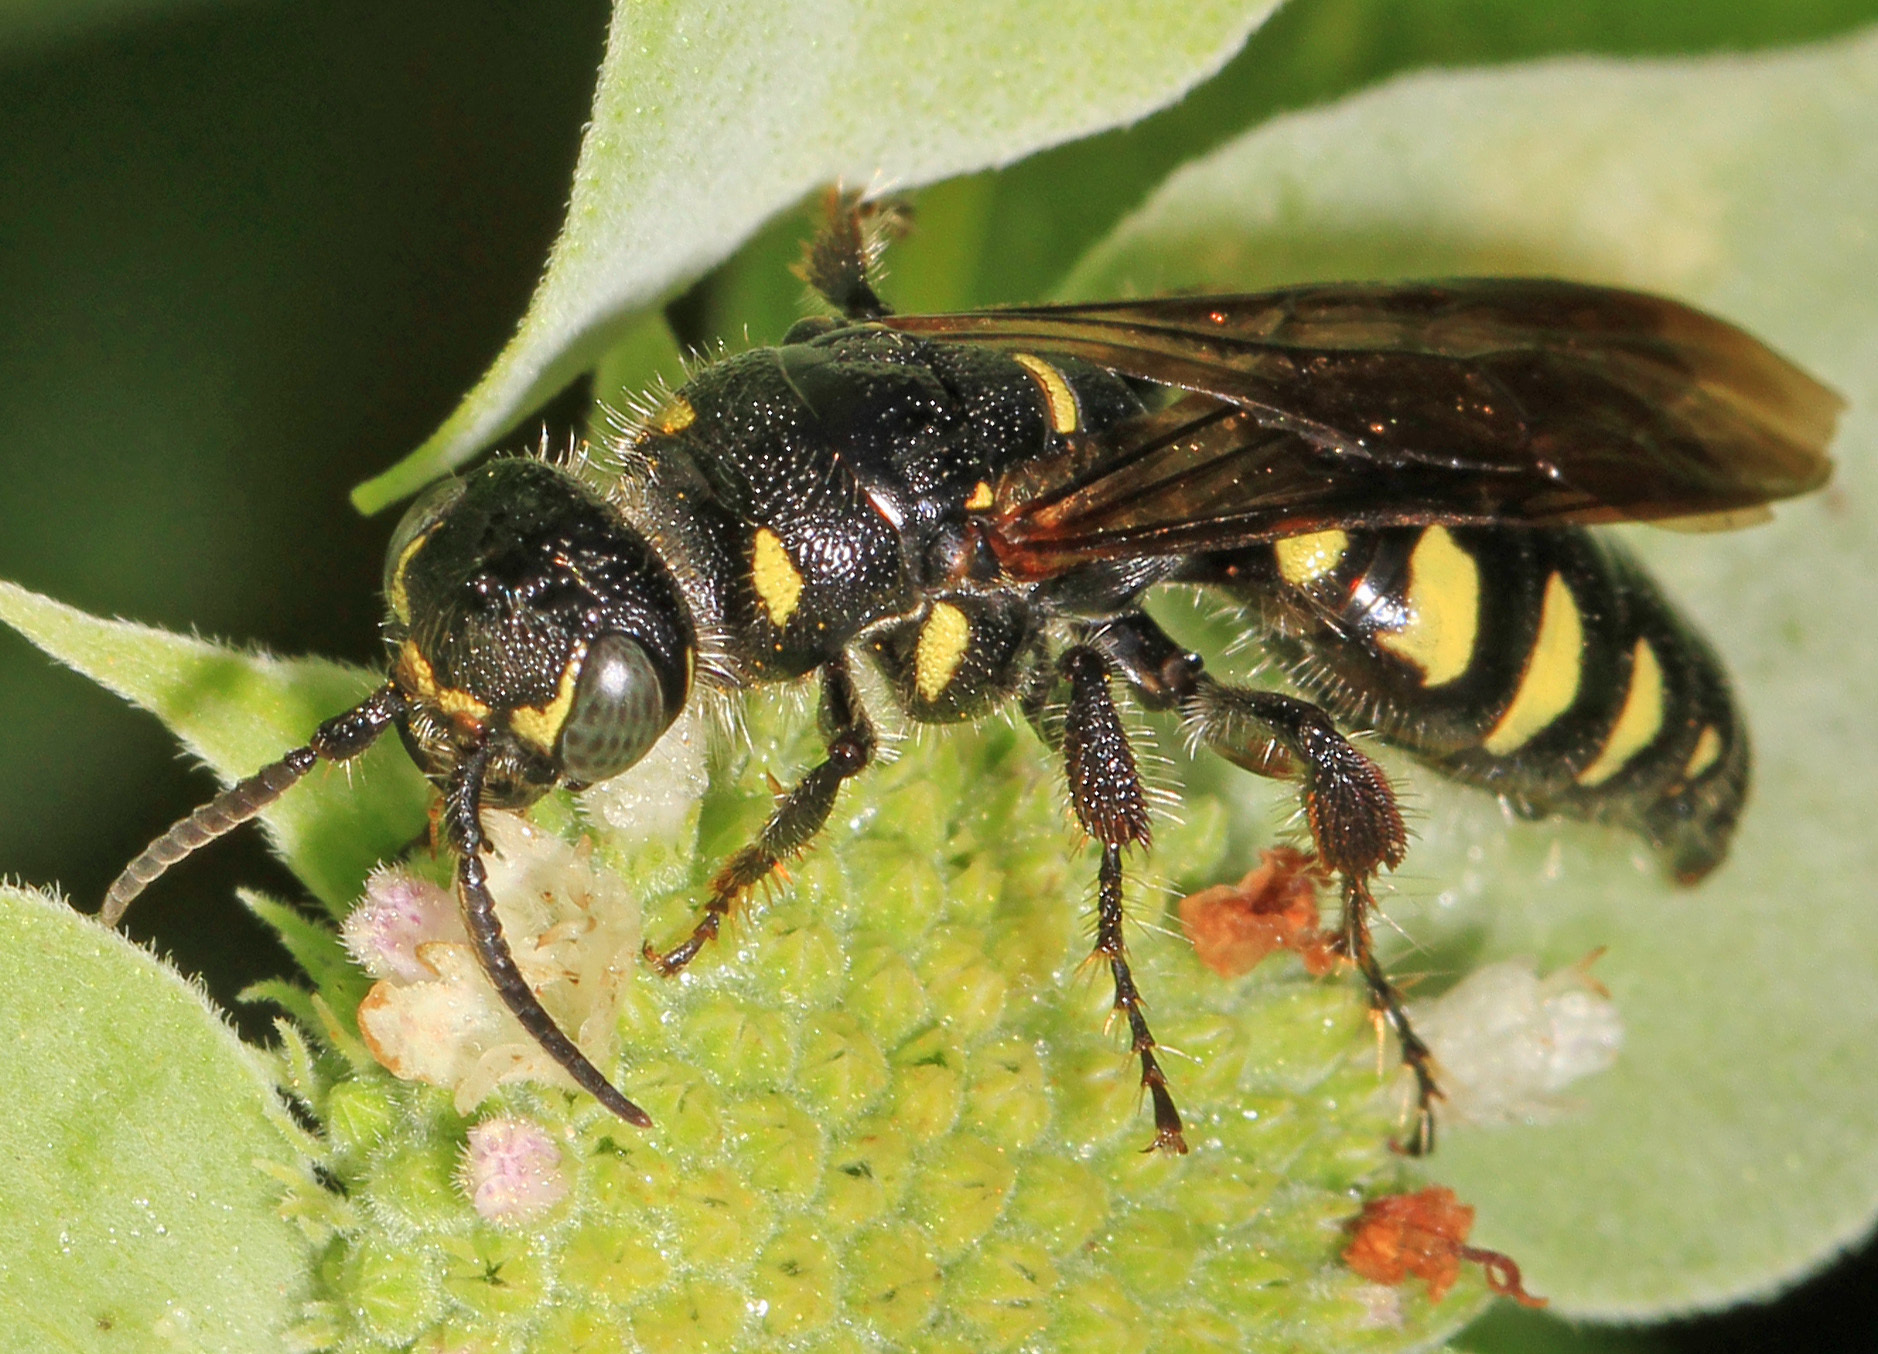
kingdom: Animalia
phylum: Arthropoda
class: Insecta
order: Hymenoptera
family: Tiphiidae
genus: Myzinum
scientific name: Myzinum obscurum
